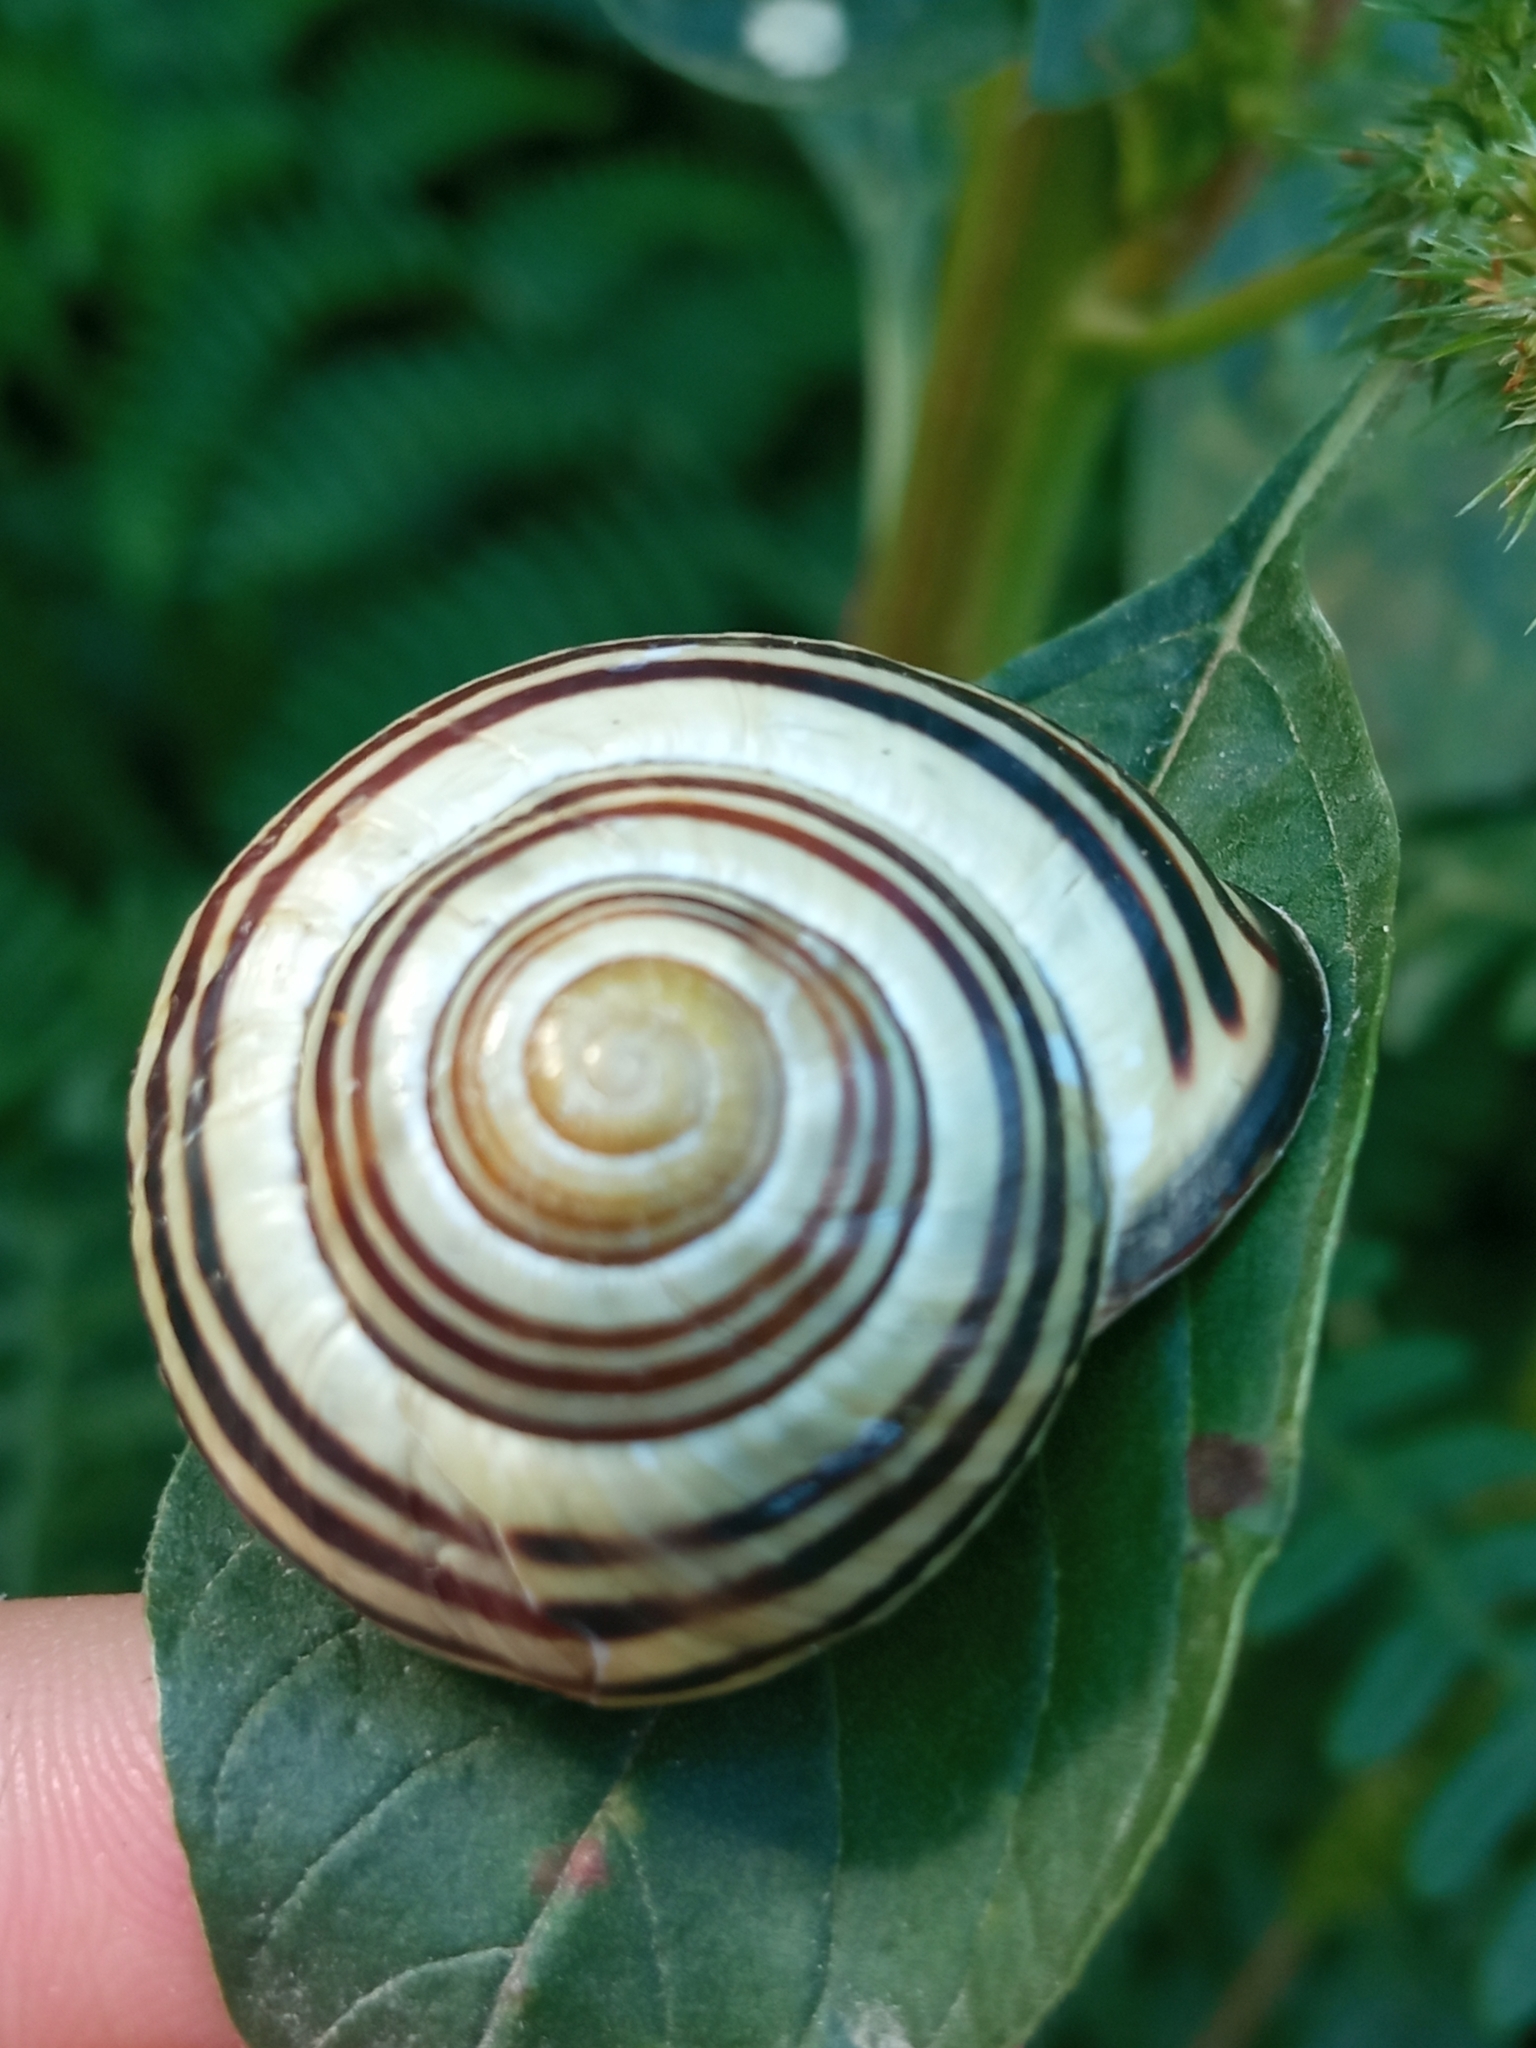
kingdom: Animalia
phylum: Mollusca
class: Gastropoda
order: Stylommatophora
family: Helicidae
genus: Cepaea
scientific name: Cepaea nemoralis
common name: Grovesnail
